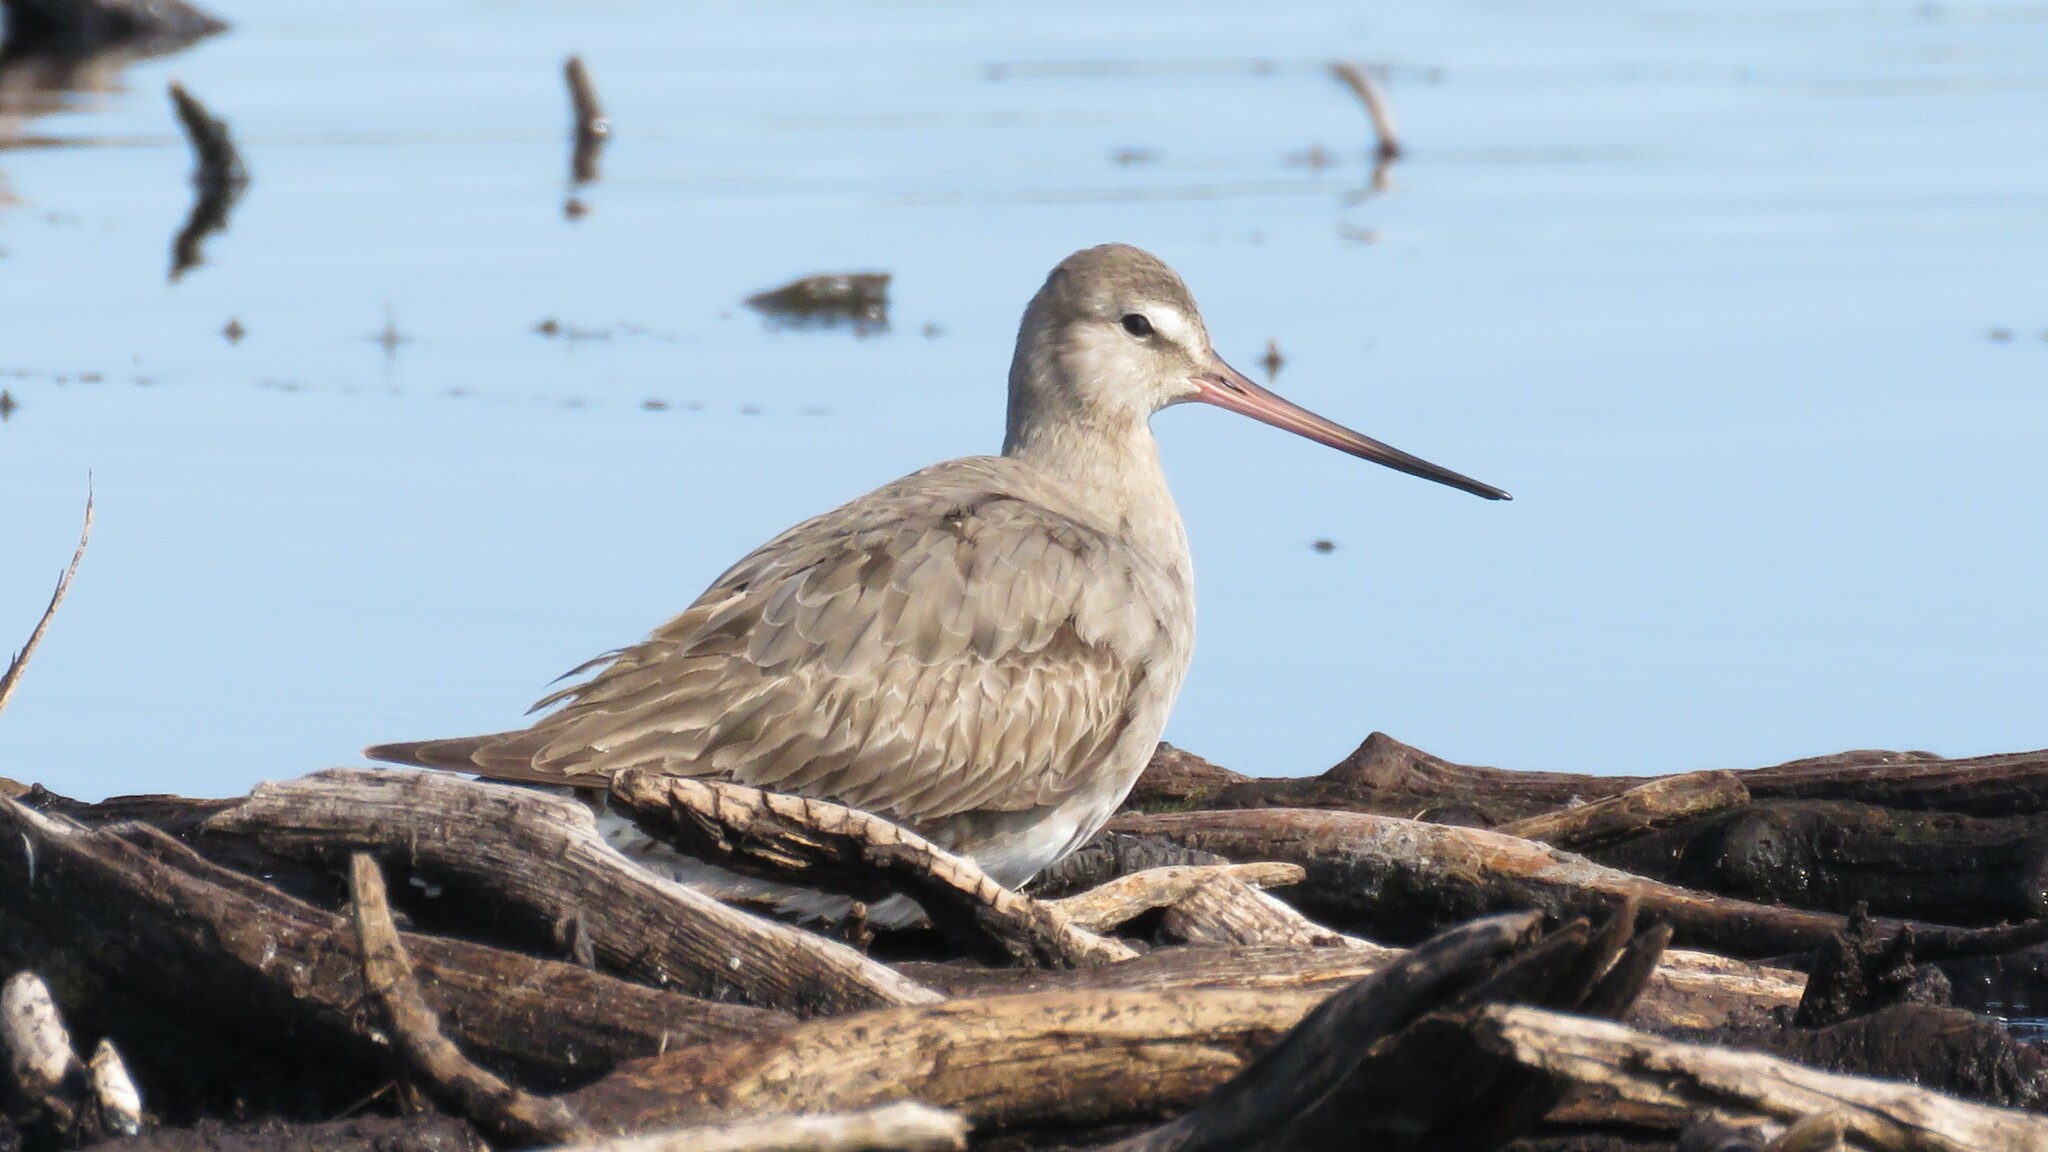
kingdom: Animalia
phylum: Chordata
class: Aves
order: Charadriiformes
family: Scolopacidae
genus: Limosa
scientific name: Limosa haemastica
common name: Hudsonian godwit
